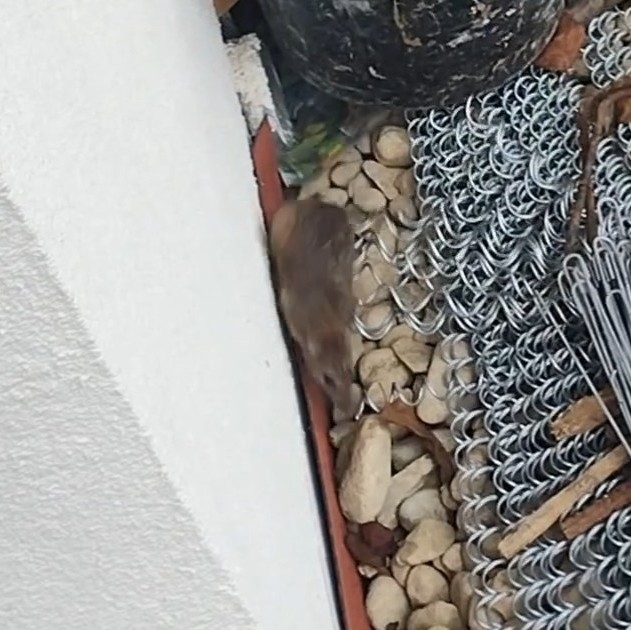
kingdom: Animalia
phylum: Chordata
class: Mammalia
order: Rodentia
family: Muridae
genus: Rattus
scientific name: Rattus norvegicus
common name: Brown rat
